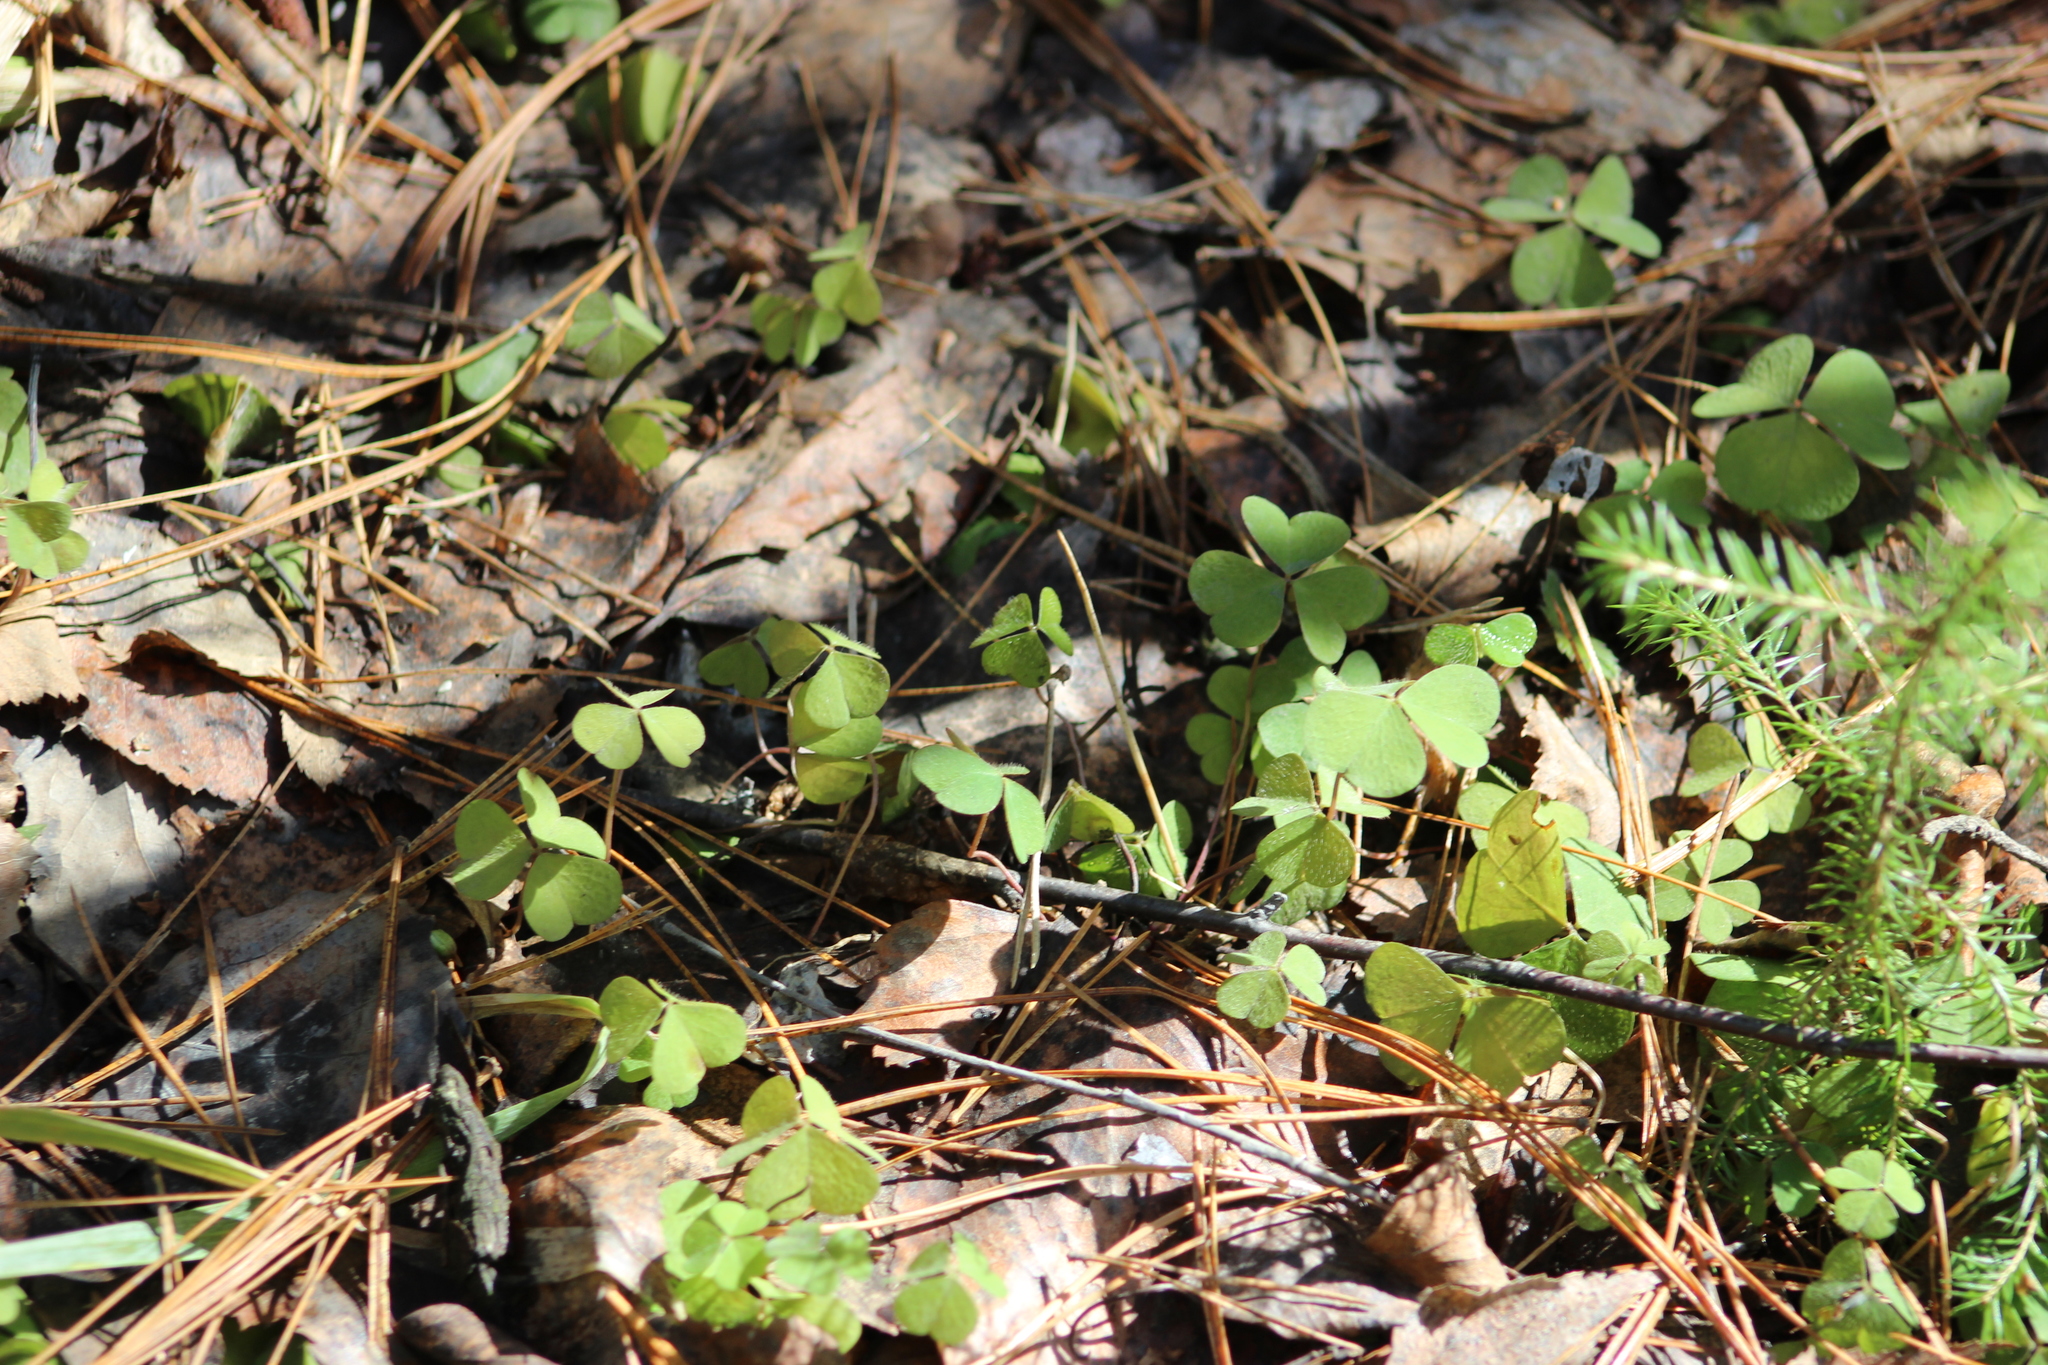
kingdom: Plantae
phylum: Tracheophyta
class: Magnoliopsida
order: Oxalidales
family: Oxalidaceae
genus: Oxalis
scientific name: Oxalis acetosella
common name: Wood-sorrel
